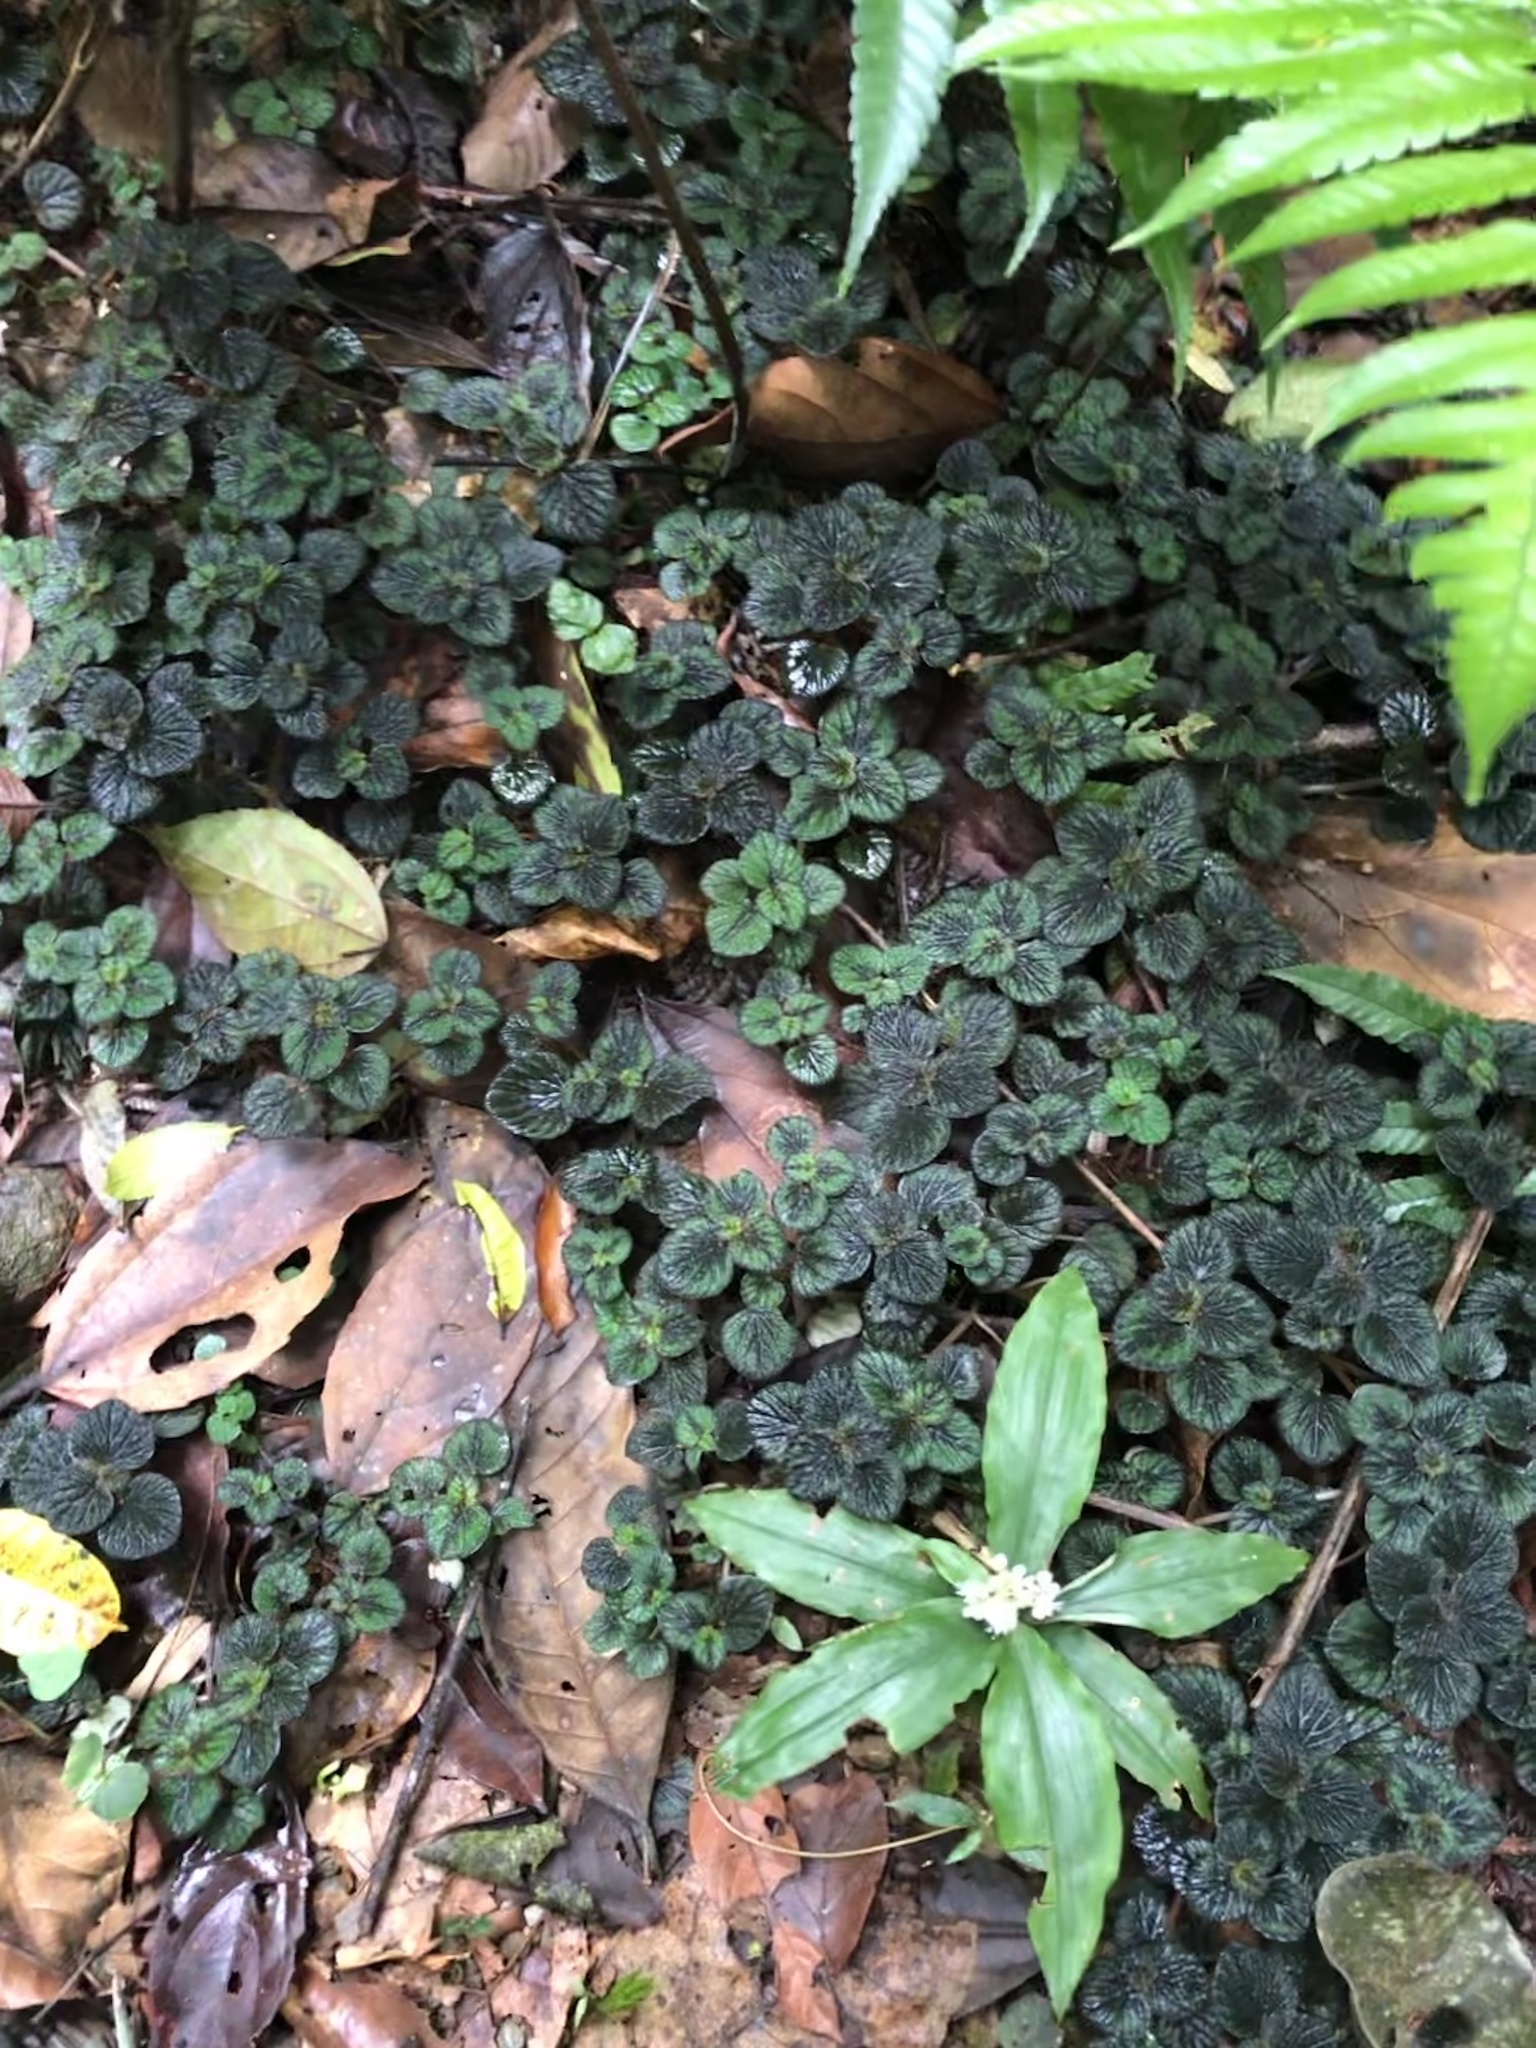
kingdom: Plantae
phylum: Tracheophyta
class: Magnoliopsida
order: Piperales
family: Piperaceae
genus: Peperomia
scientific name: Peperomia spruceana
